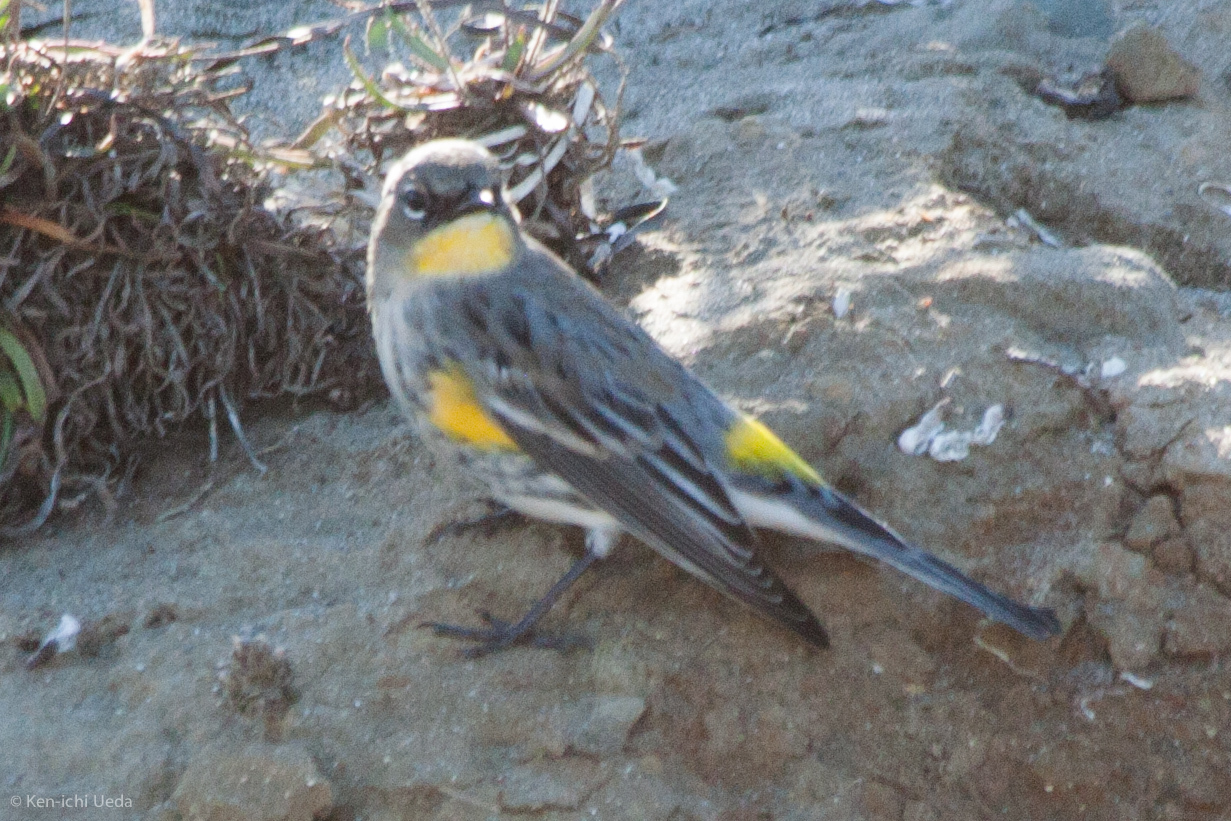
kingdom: Animalia
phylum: Chordata
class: Aves
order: Passeriformes
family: Parulidae
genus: Setophaga
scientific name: Setophaga coronata
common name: Myrtle warbler
